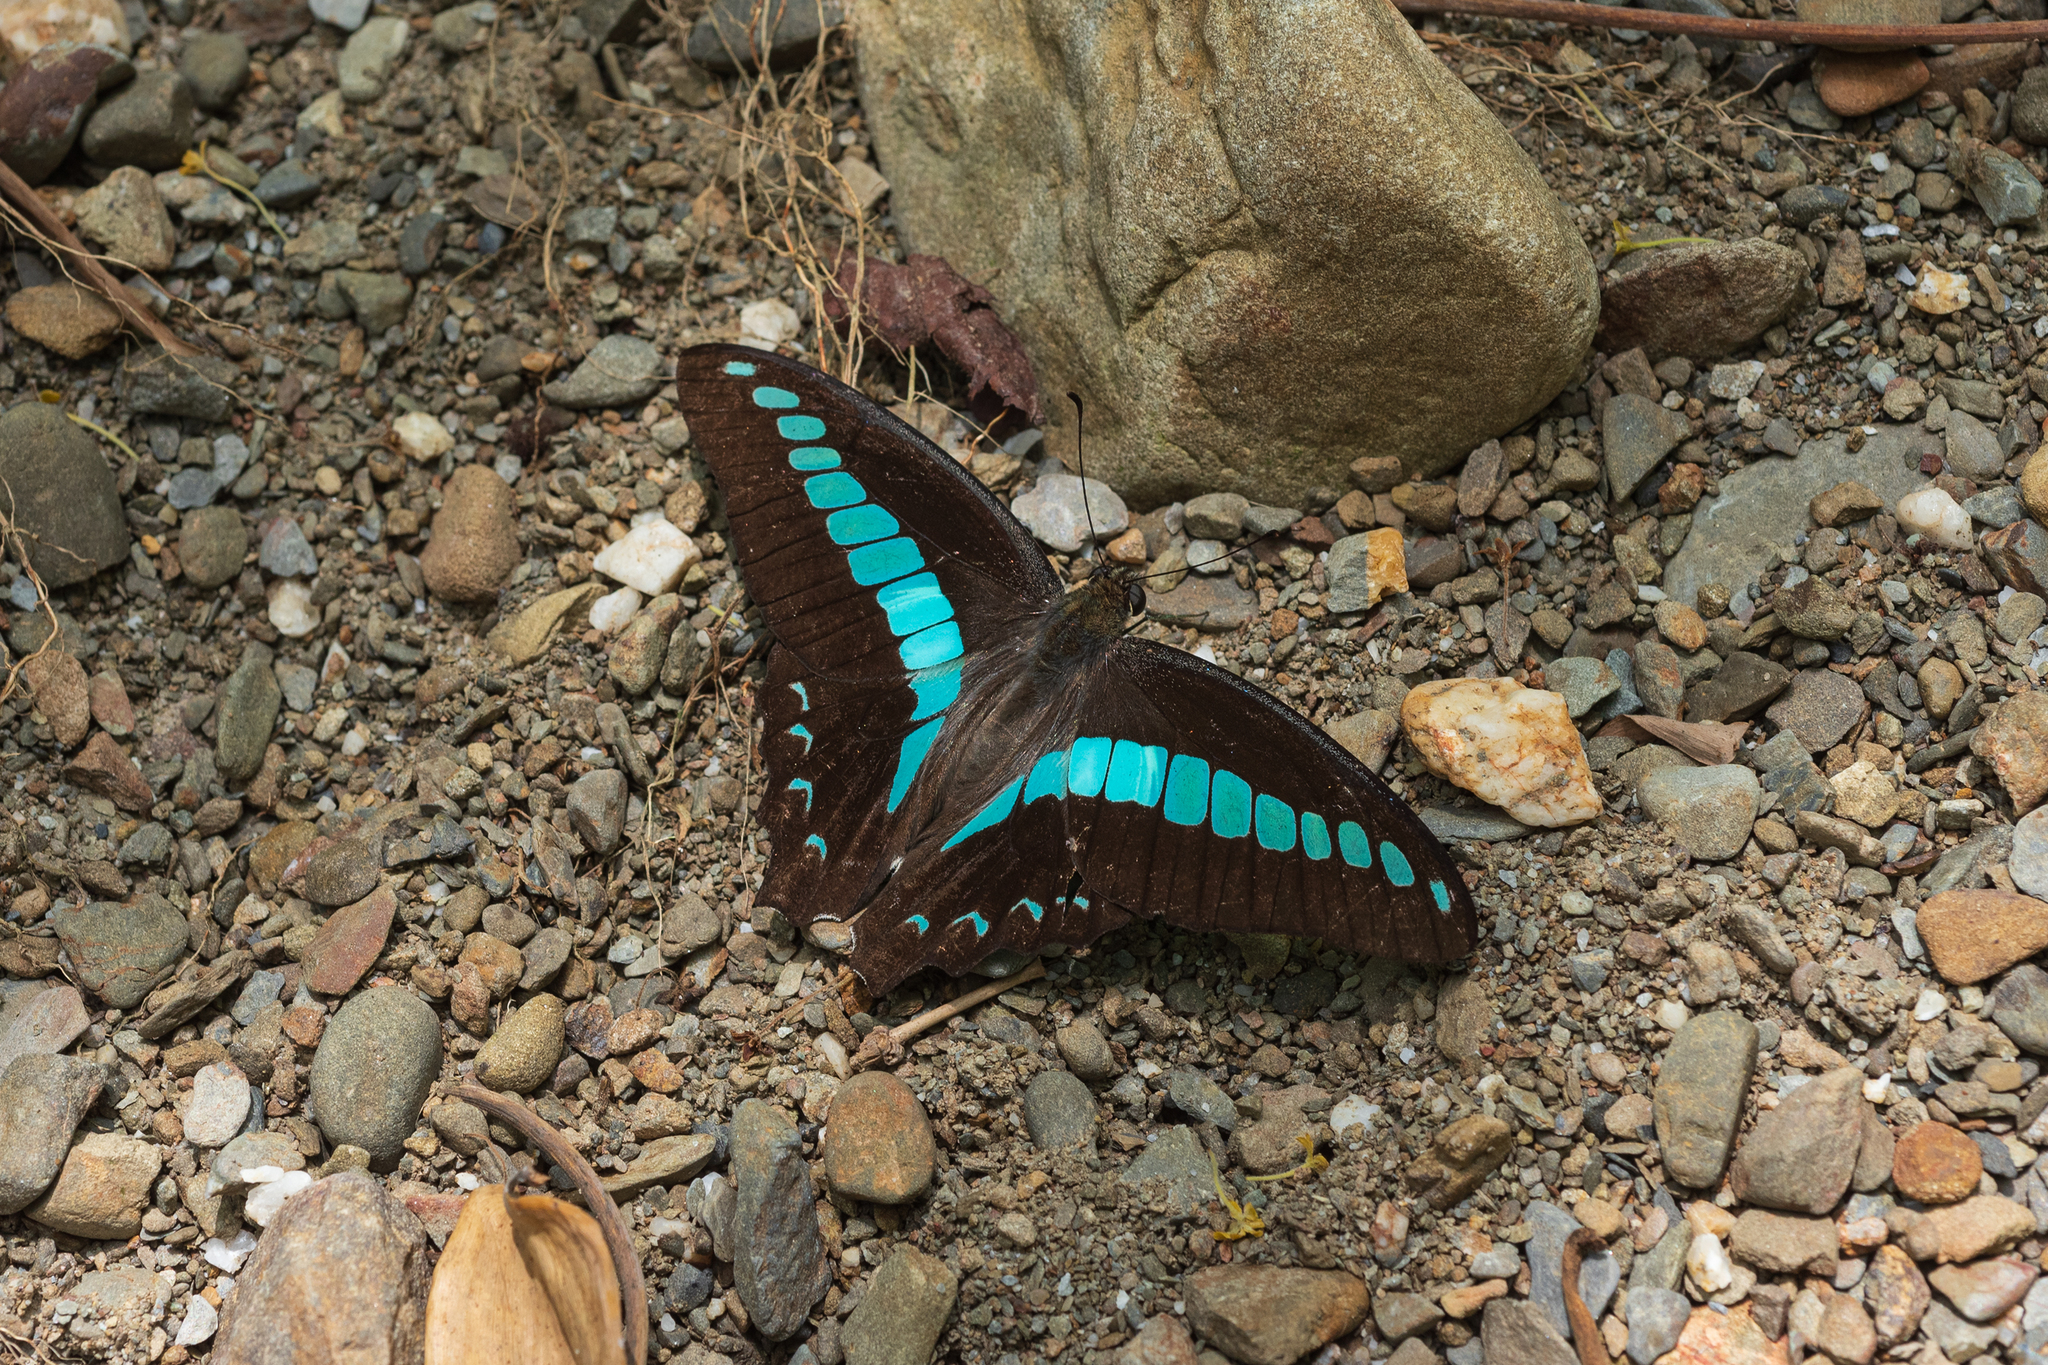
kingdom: Fungi
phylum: Ascomycota
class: Sordariomycetes
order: Microascales
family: Microascaceae
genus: Graphium
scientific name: Graphium sarpedon
